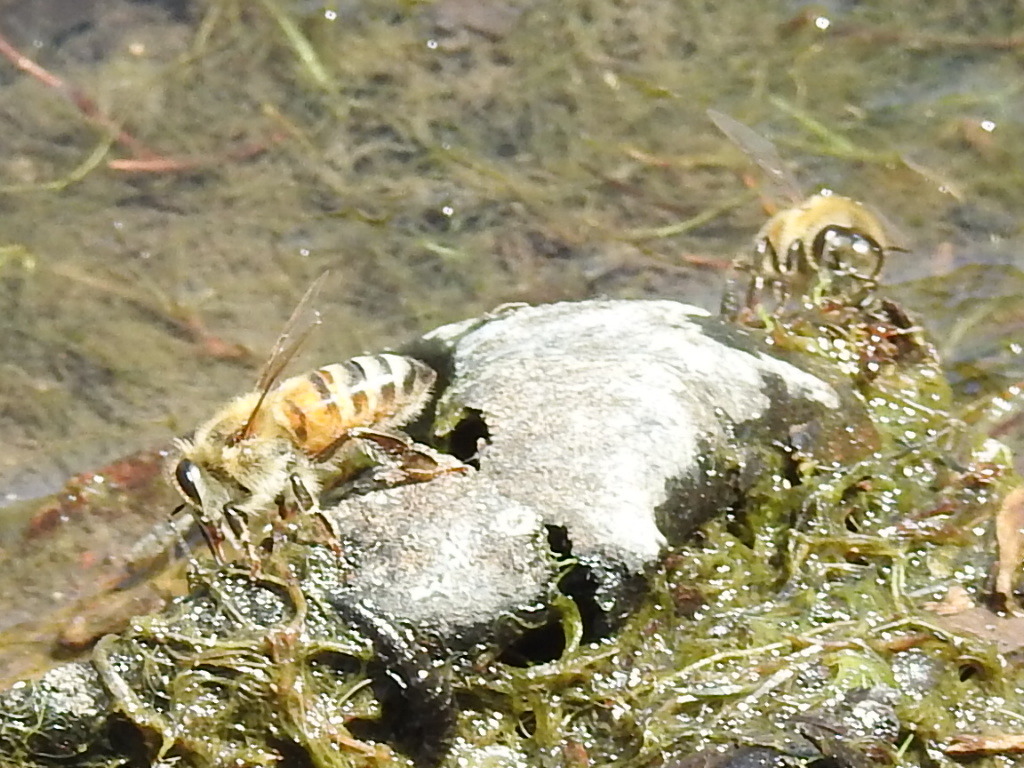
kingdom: Animalia
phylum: Arthropoda
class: Insecta
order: Hymenoptera
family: Apidae
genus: Apis
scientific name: Apis mellifera
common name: Honey bee
